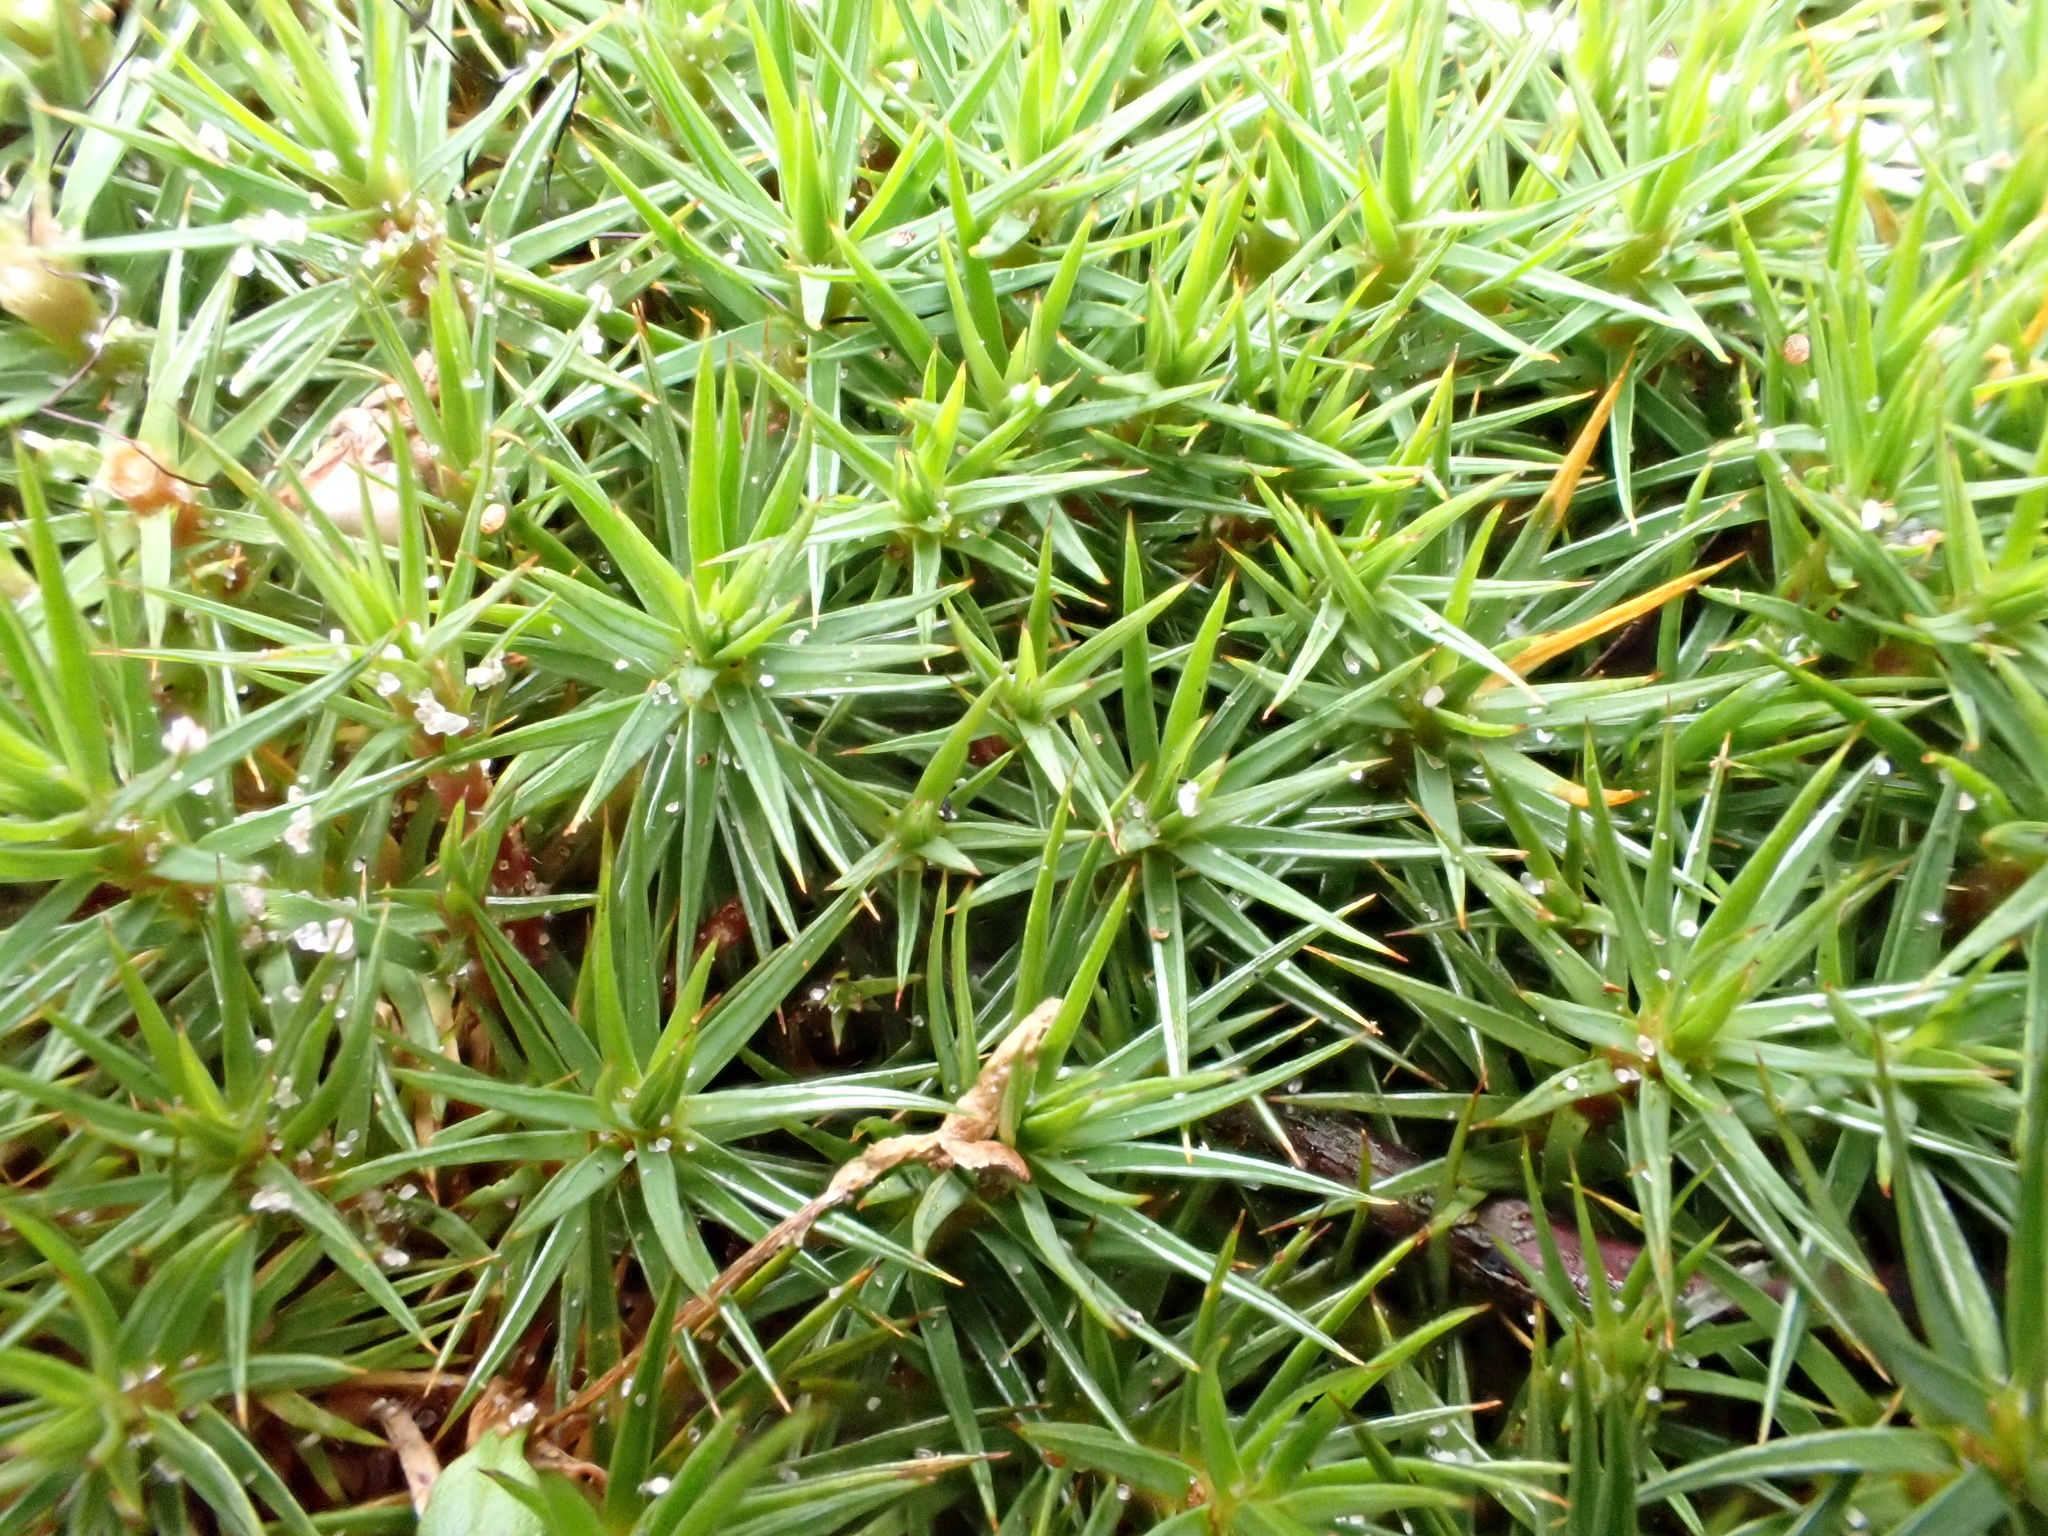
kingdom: Plantae
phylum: Bryophyta
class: Polytrichopsida
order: Polytrichales
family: Polytrichaceae
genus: Polytrichum
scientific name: Polytrichum juniperinum
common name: Juniper haircap moss
